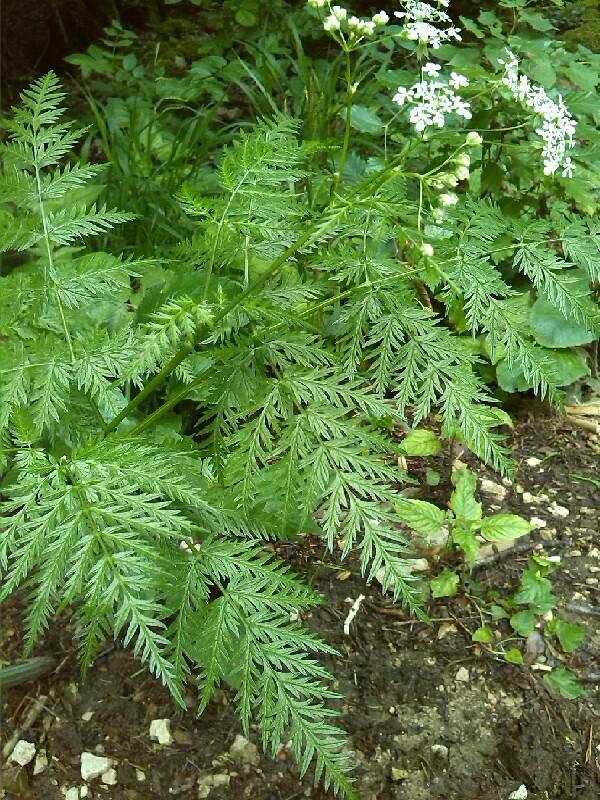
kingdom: Plantae
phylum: Tracheophyta
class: Magnoliopsida
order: Apiales
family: Apiaceae
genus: Myrrhis
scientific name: Myrrhis odorata
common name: Sweet cicely
